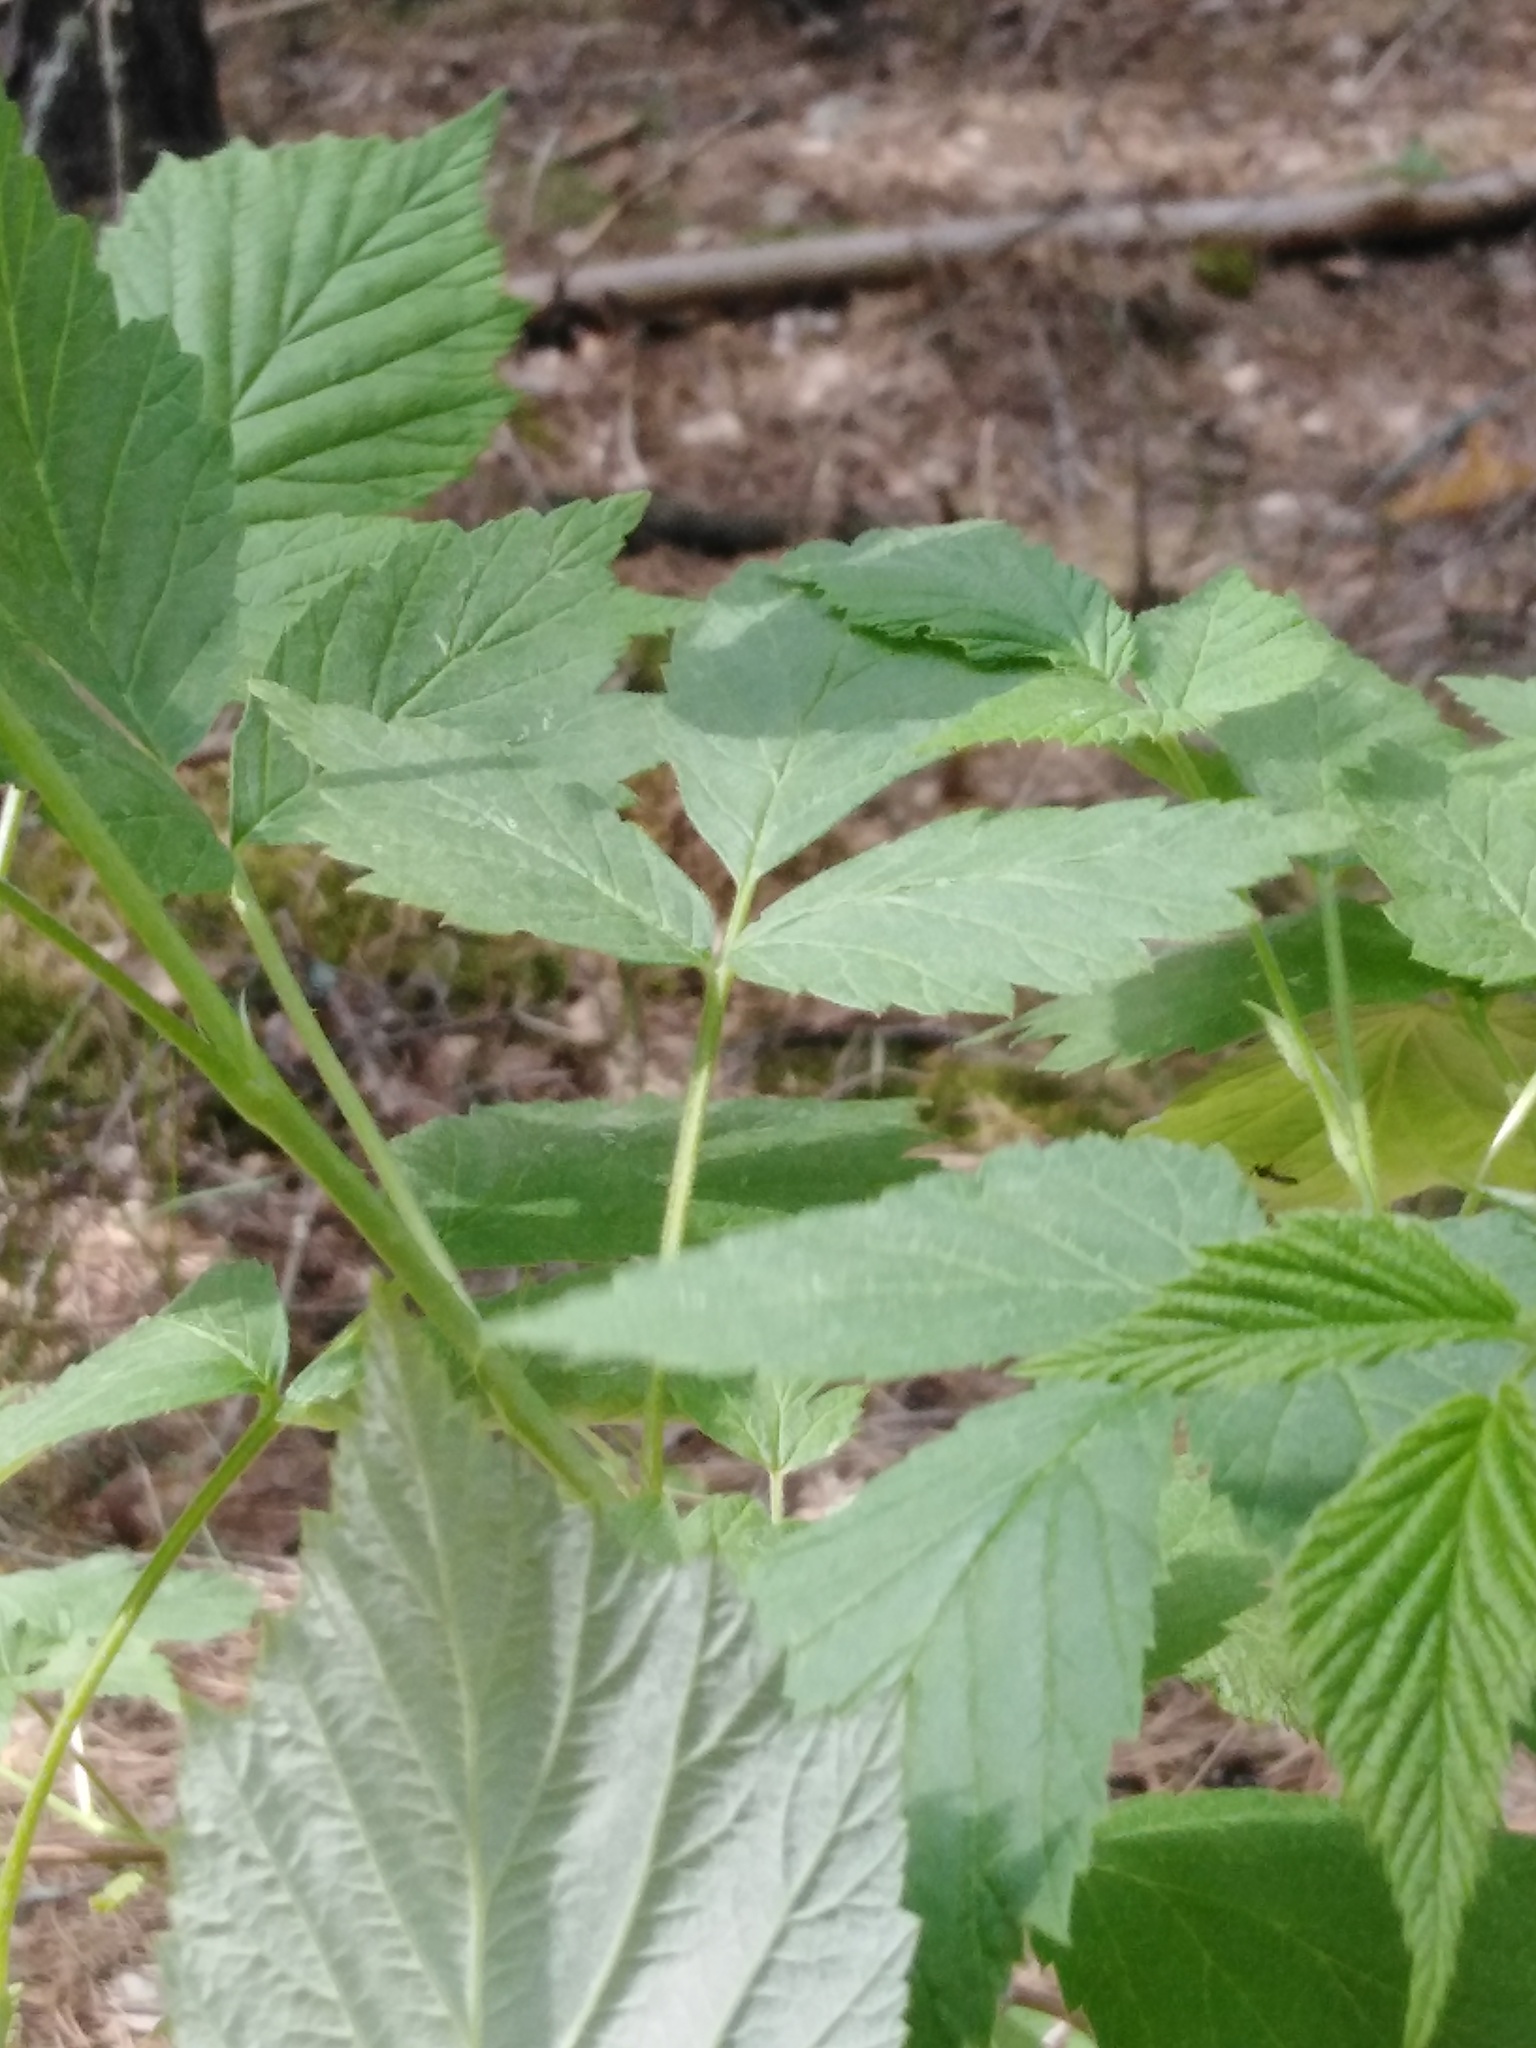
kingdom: Plantae
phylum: Tracheophyta
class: Magnoliopsida
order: Rosales
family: Rosaceae
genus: Rubus
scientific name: Rubus idaeus
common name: Raspberry
